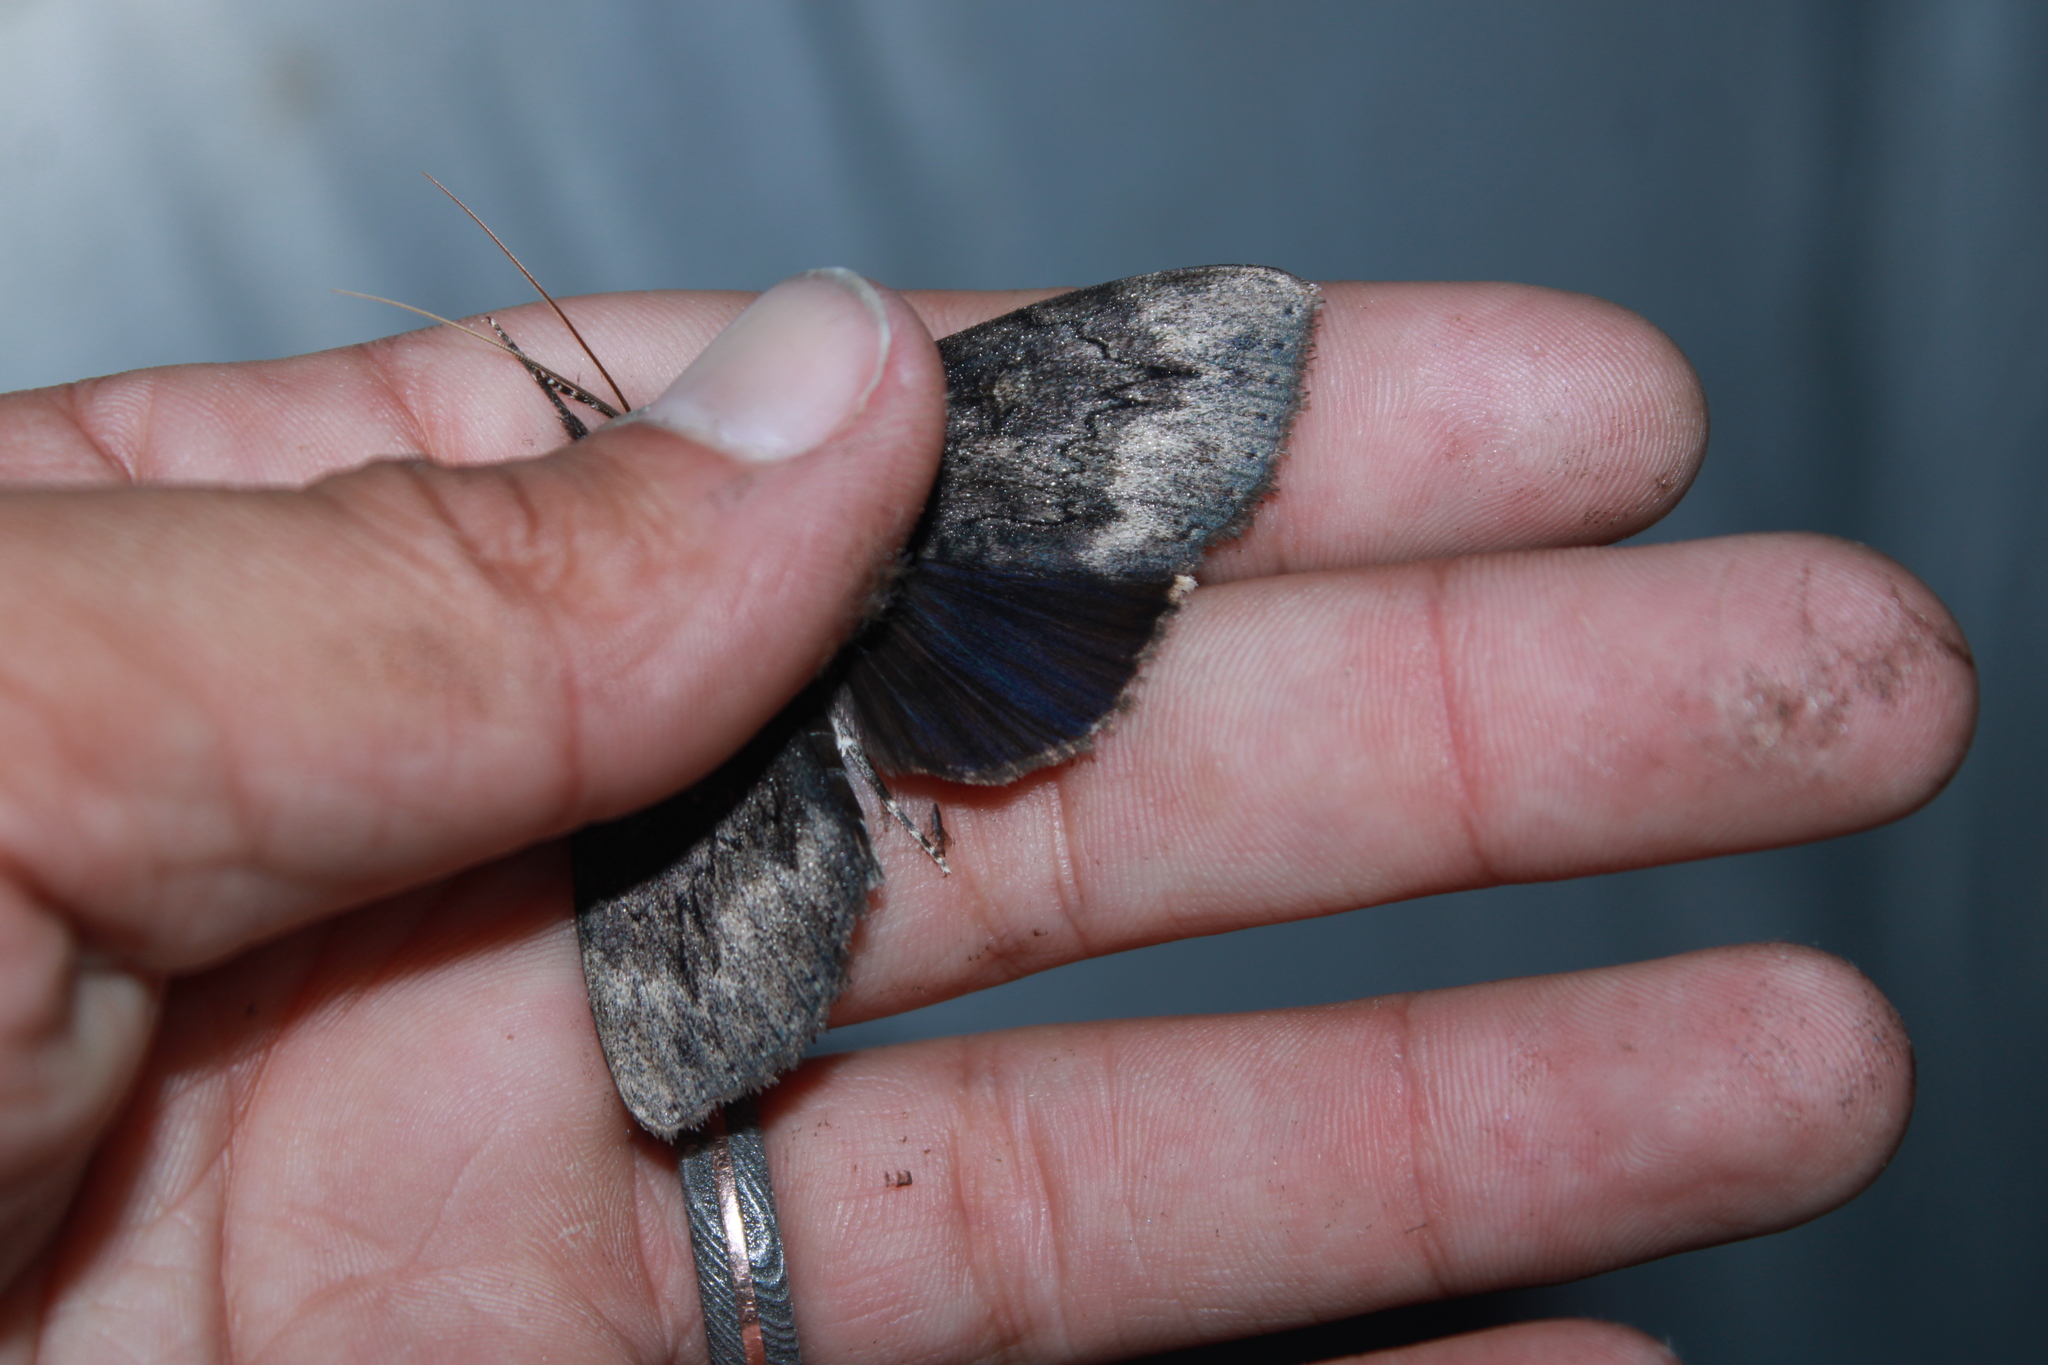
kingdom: Animalia
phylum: Arthropoda
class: Insecta
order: Lepidoptera
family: Erebidae
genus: Catocala
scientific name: Catocala residua
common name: Residua underwing
